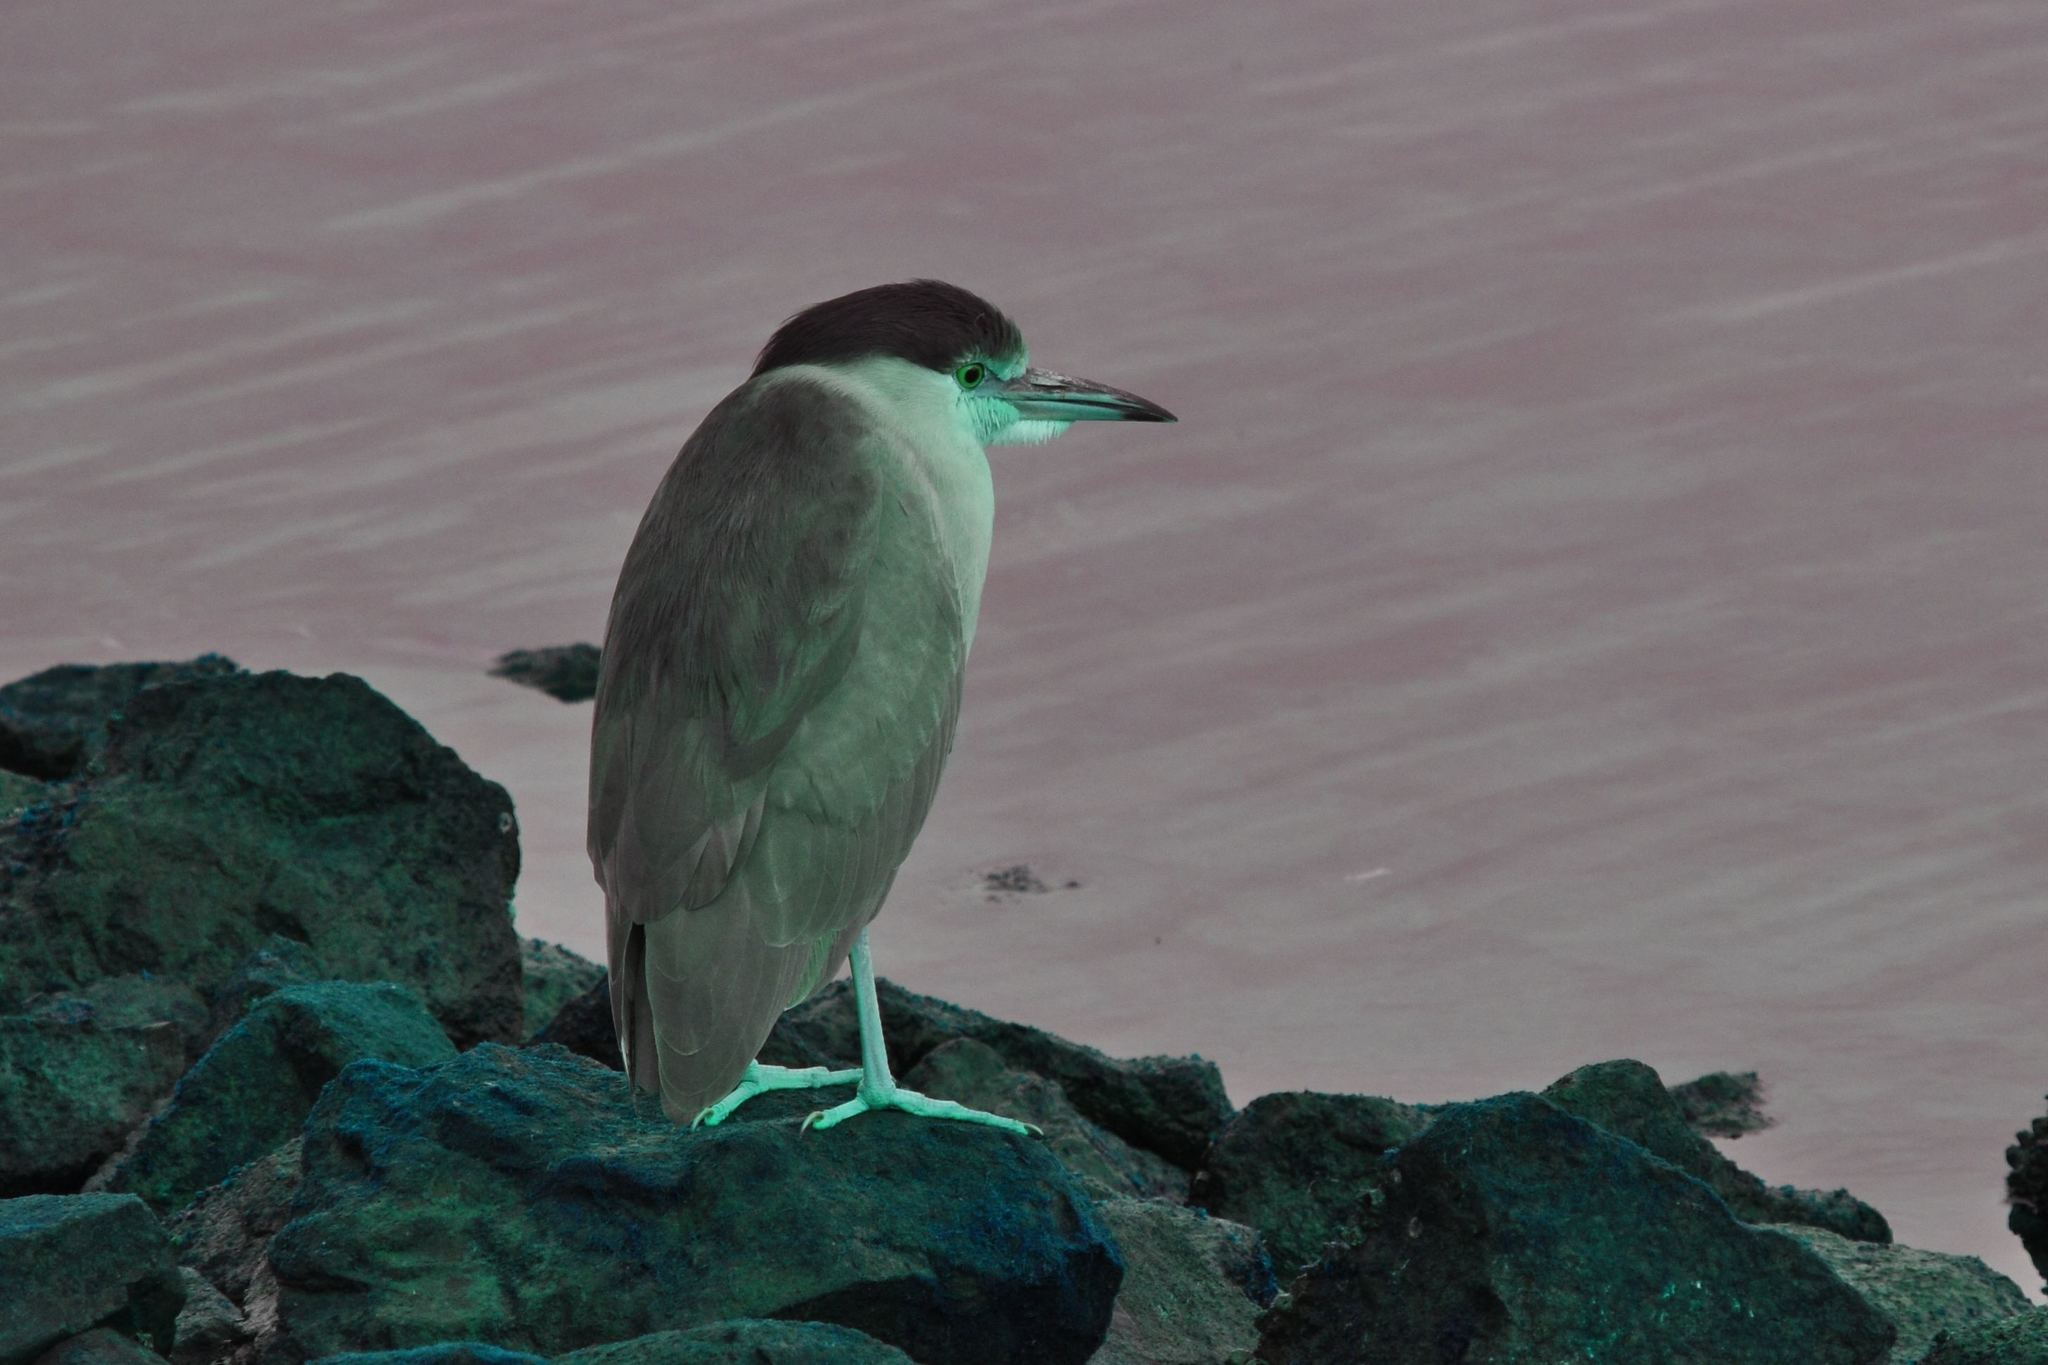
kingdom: Animalia
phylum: Chordata
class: Aves
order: Pelecaniformes
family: Ardeidae
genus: Nycticorax
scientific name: Nycticorax nycticorax
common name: Black-crowned night heron
